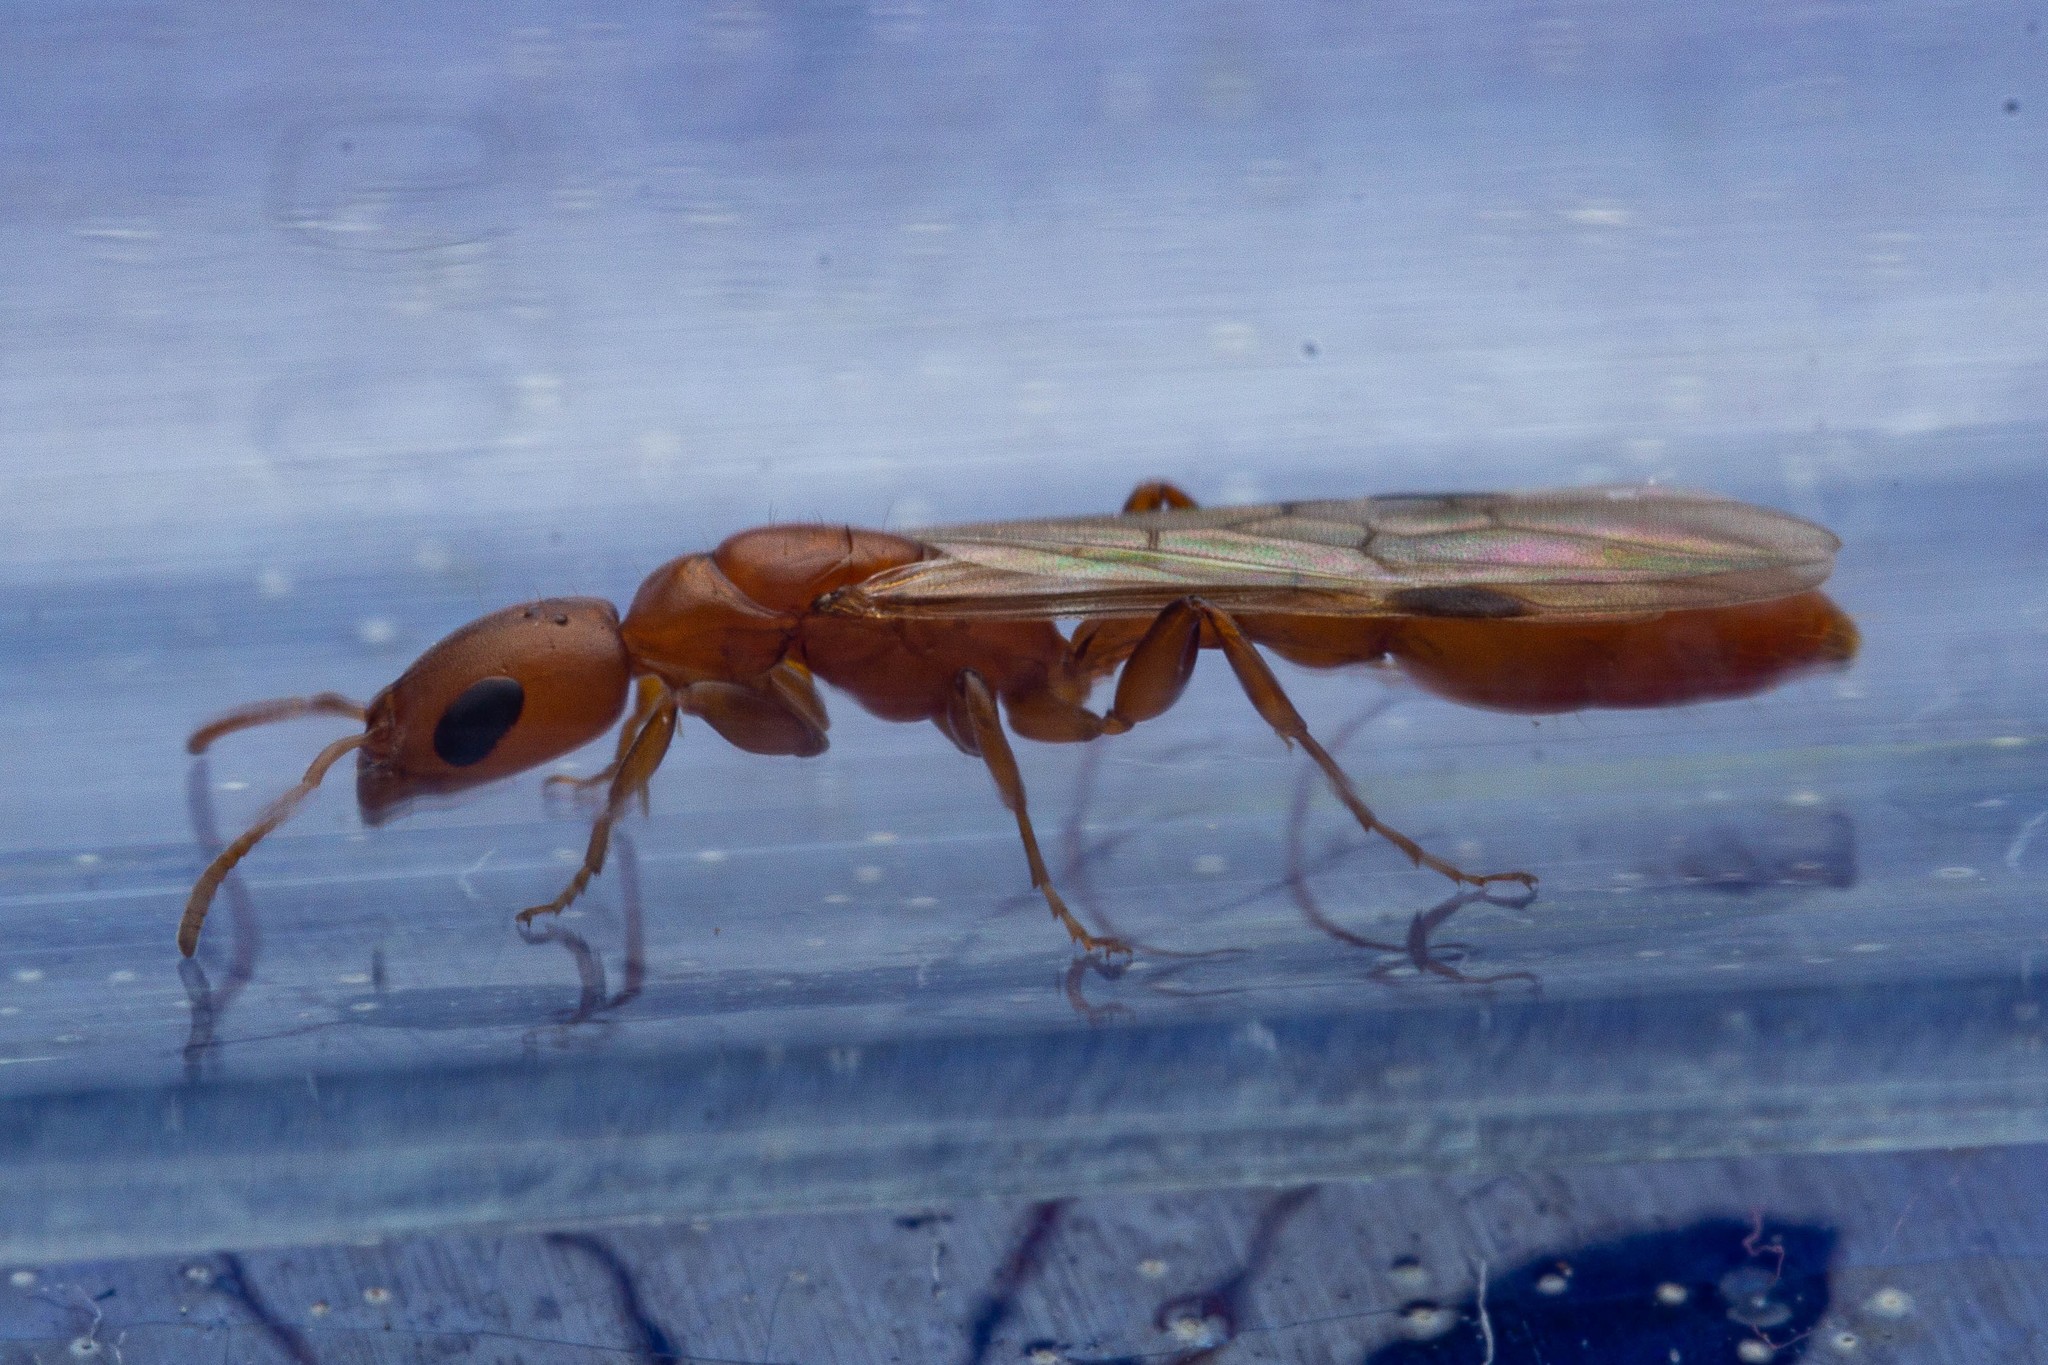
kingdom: Animalia
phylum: Arthropoda
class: Insecta
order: Hymenoptera
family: Formicidae
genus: Pseudomyrmex
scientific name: Pseudomyrmex apache
